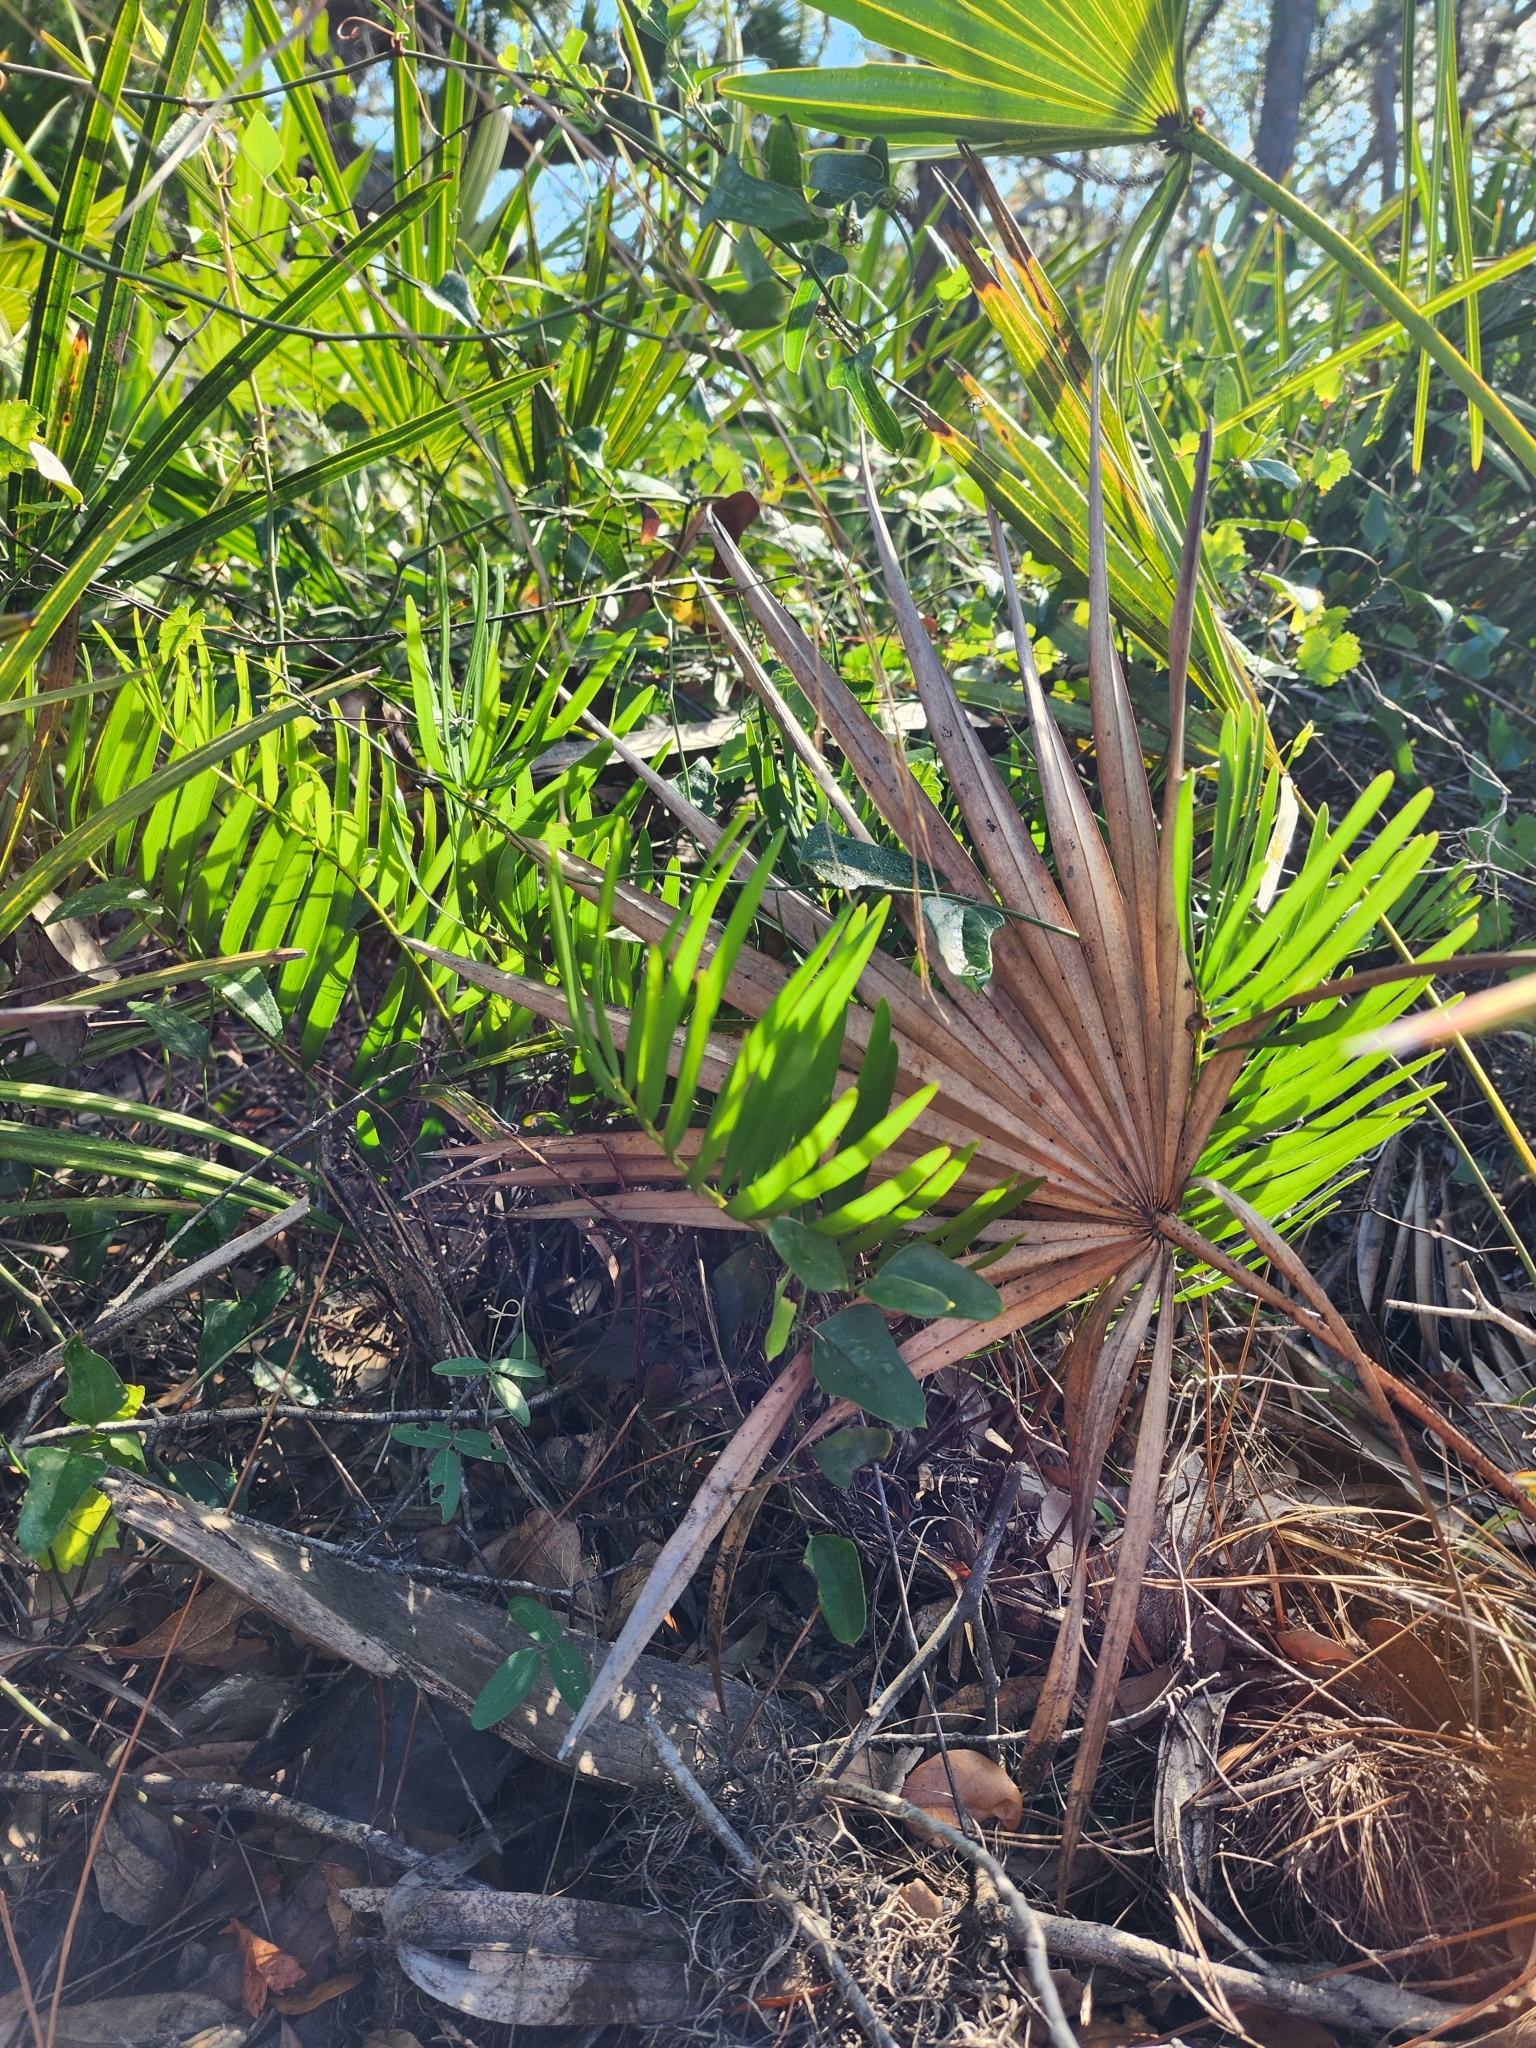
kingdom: Plantae
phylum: Tracheophyta
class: Cycadopsida
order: Cycadales
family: Zamiaceae
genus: Zamia
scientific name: Zamia integrifolia
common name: Florida arrowroot
